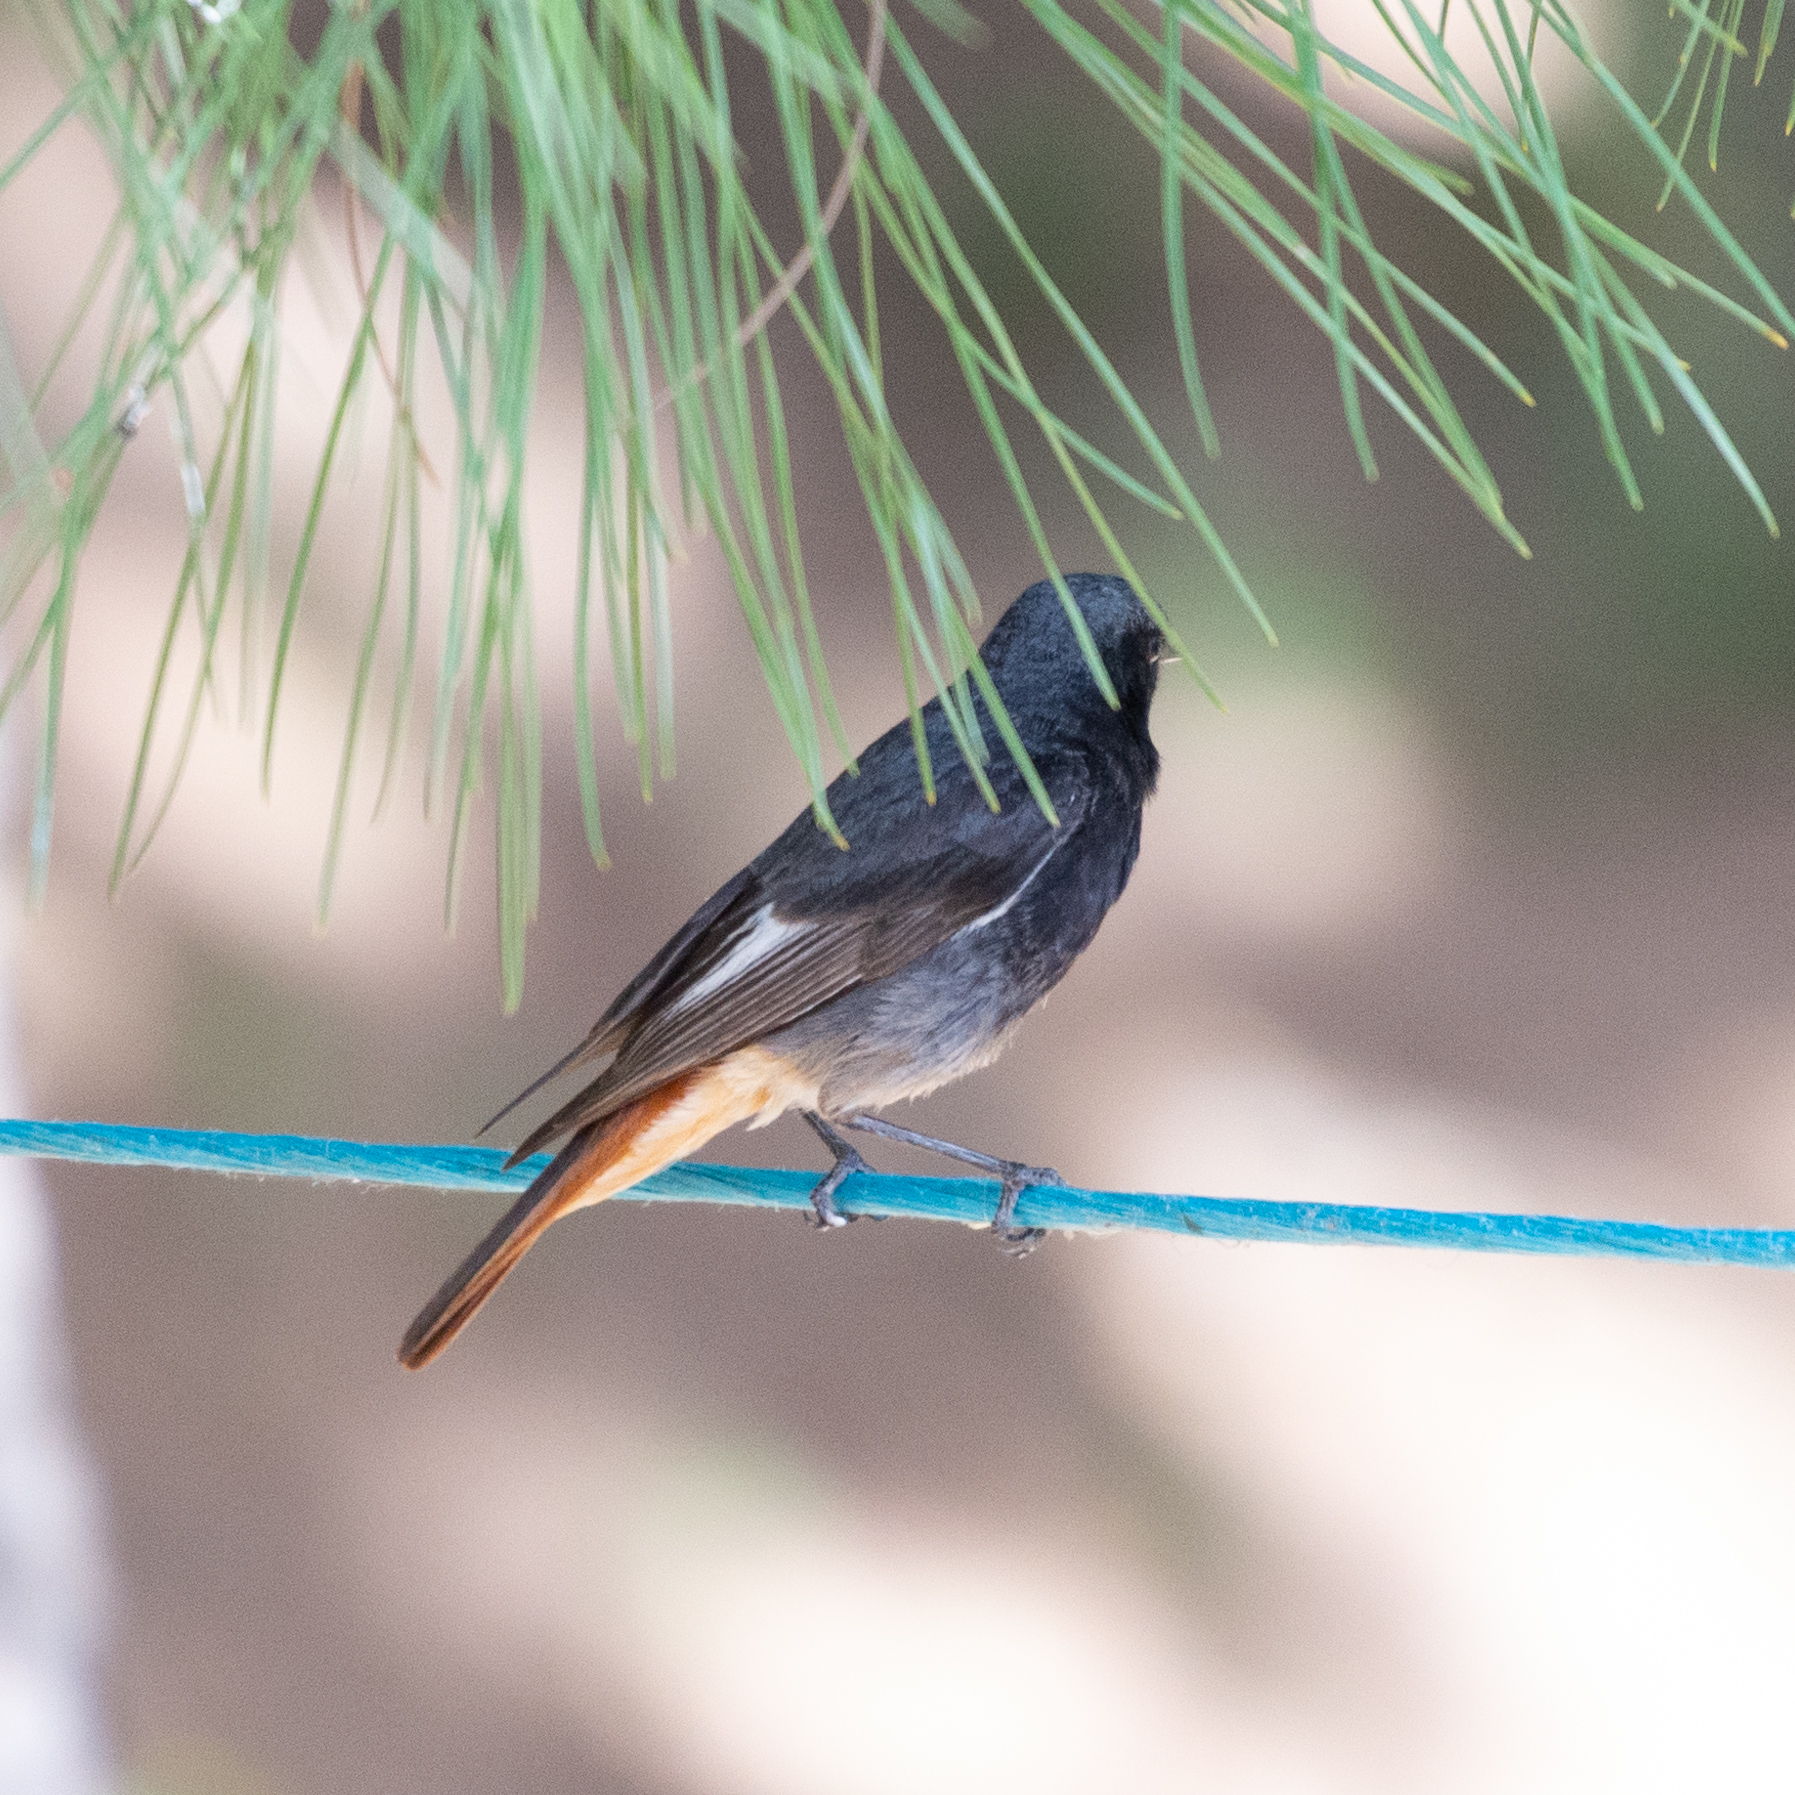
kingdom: Animalia
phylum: Chordata
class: Aves
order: Passeriformes
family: Muscicapidae
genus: Phoenicurus
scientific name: Phoenicurus ochruros
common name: Black redstart
